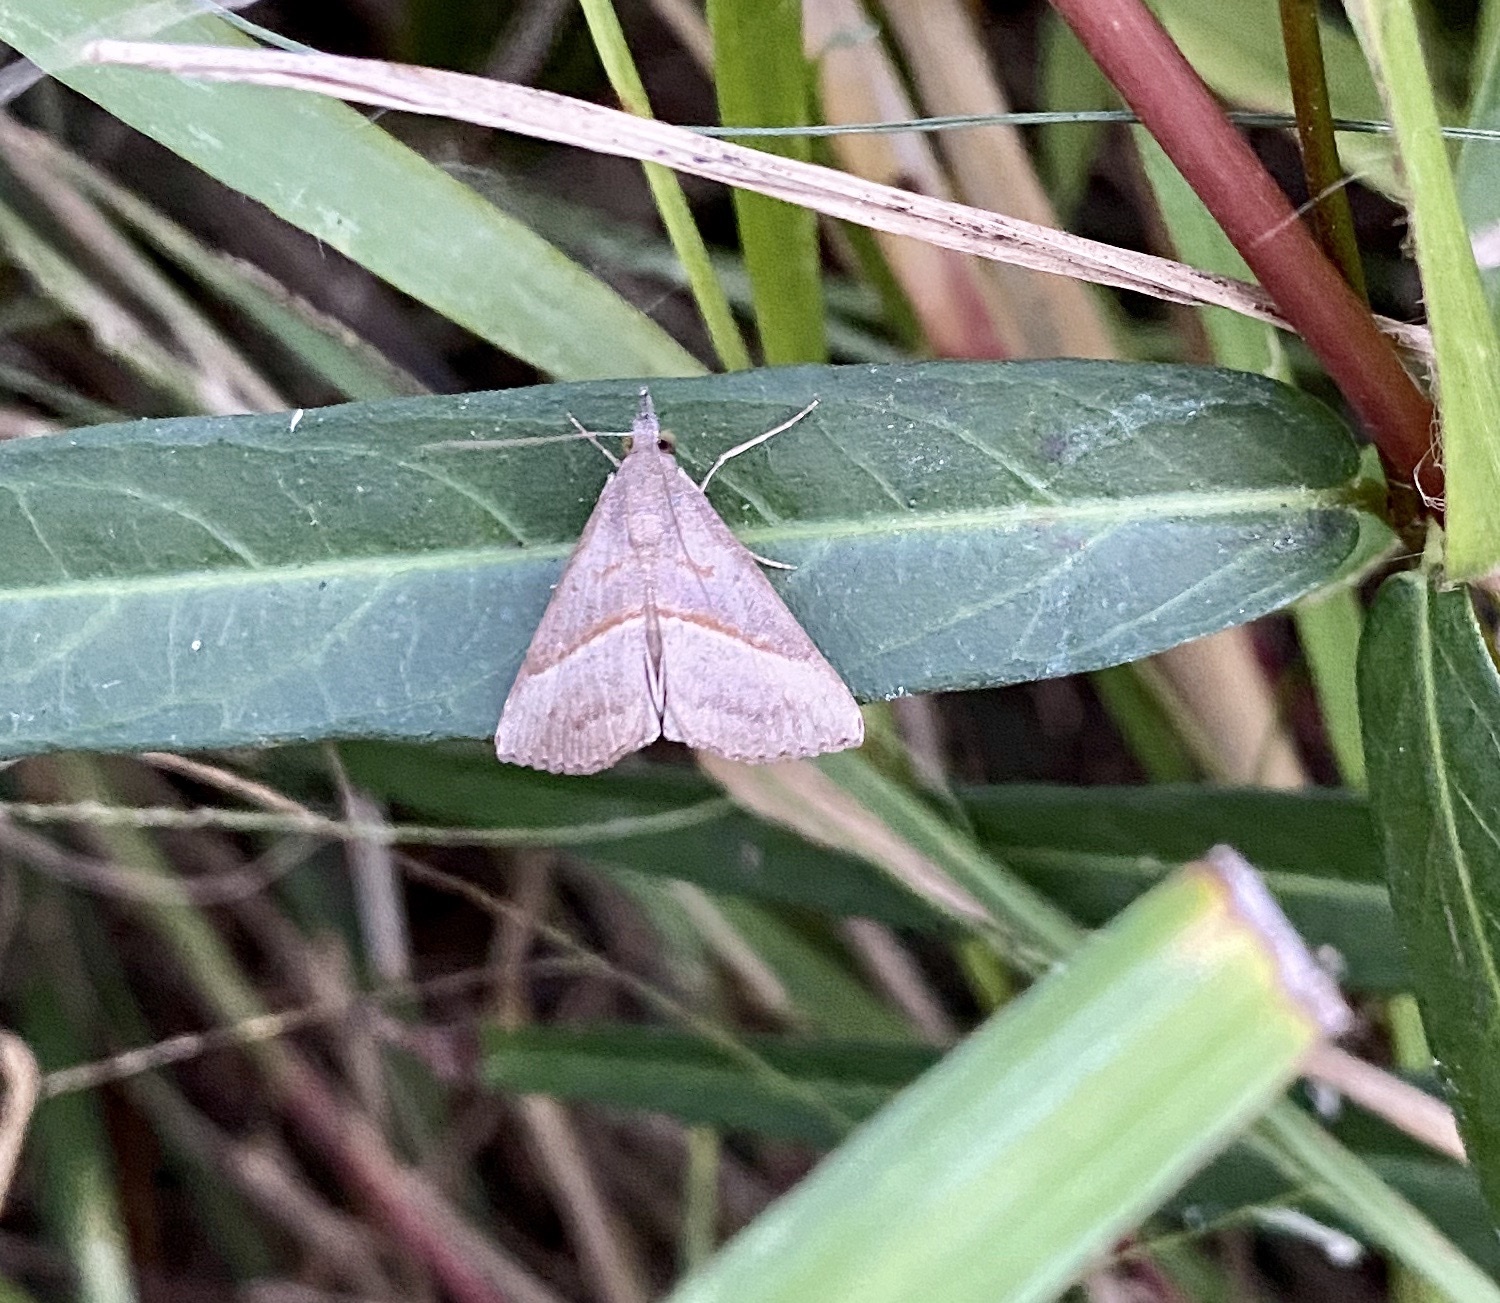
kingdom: Animalia
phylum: Arthropoda
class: Insecta
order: Lepidoptera
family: Erebidae
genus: Hypena
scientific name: Hypena degesalis
